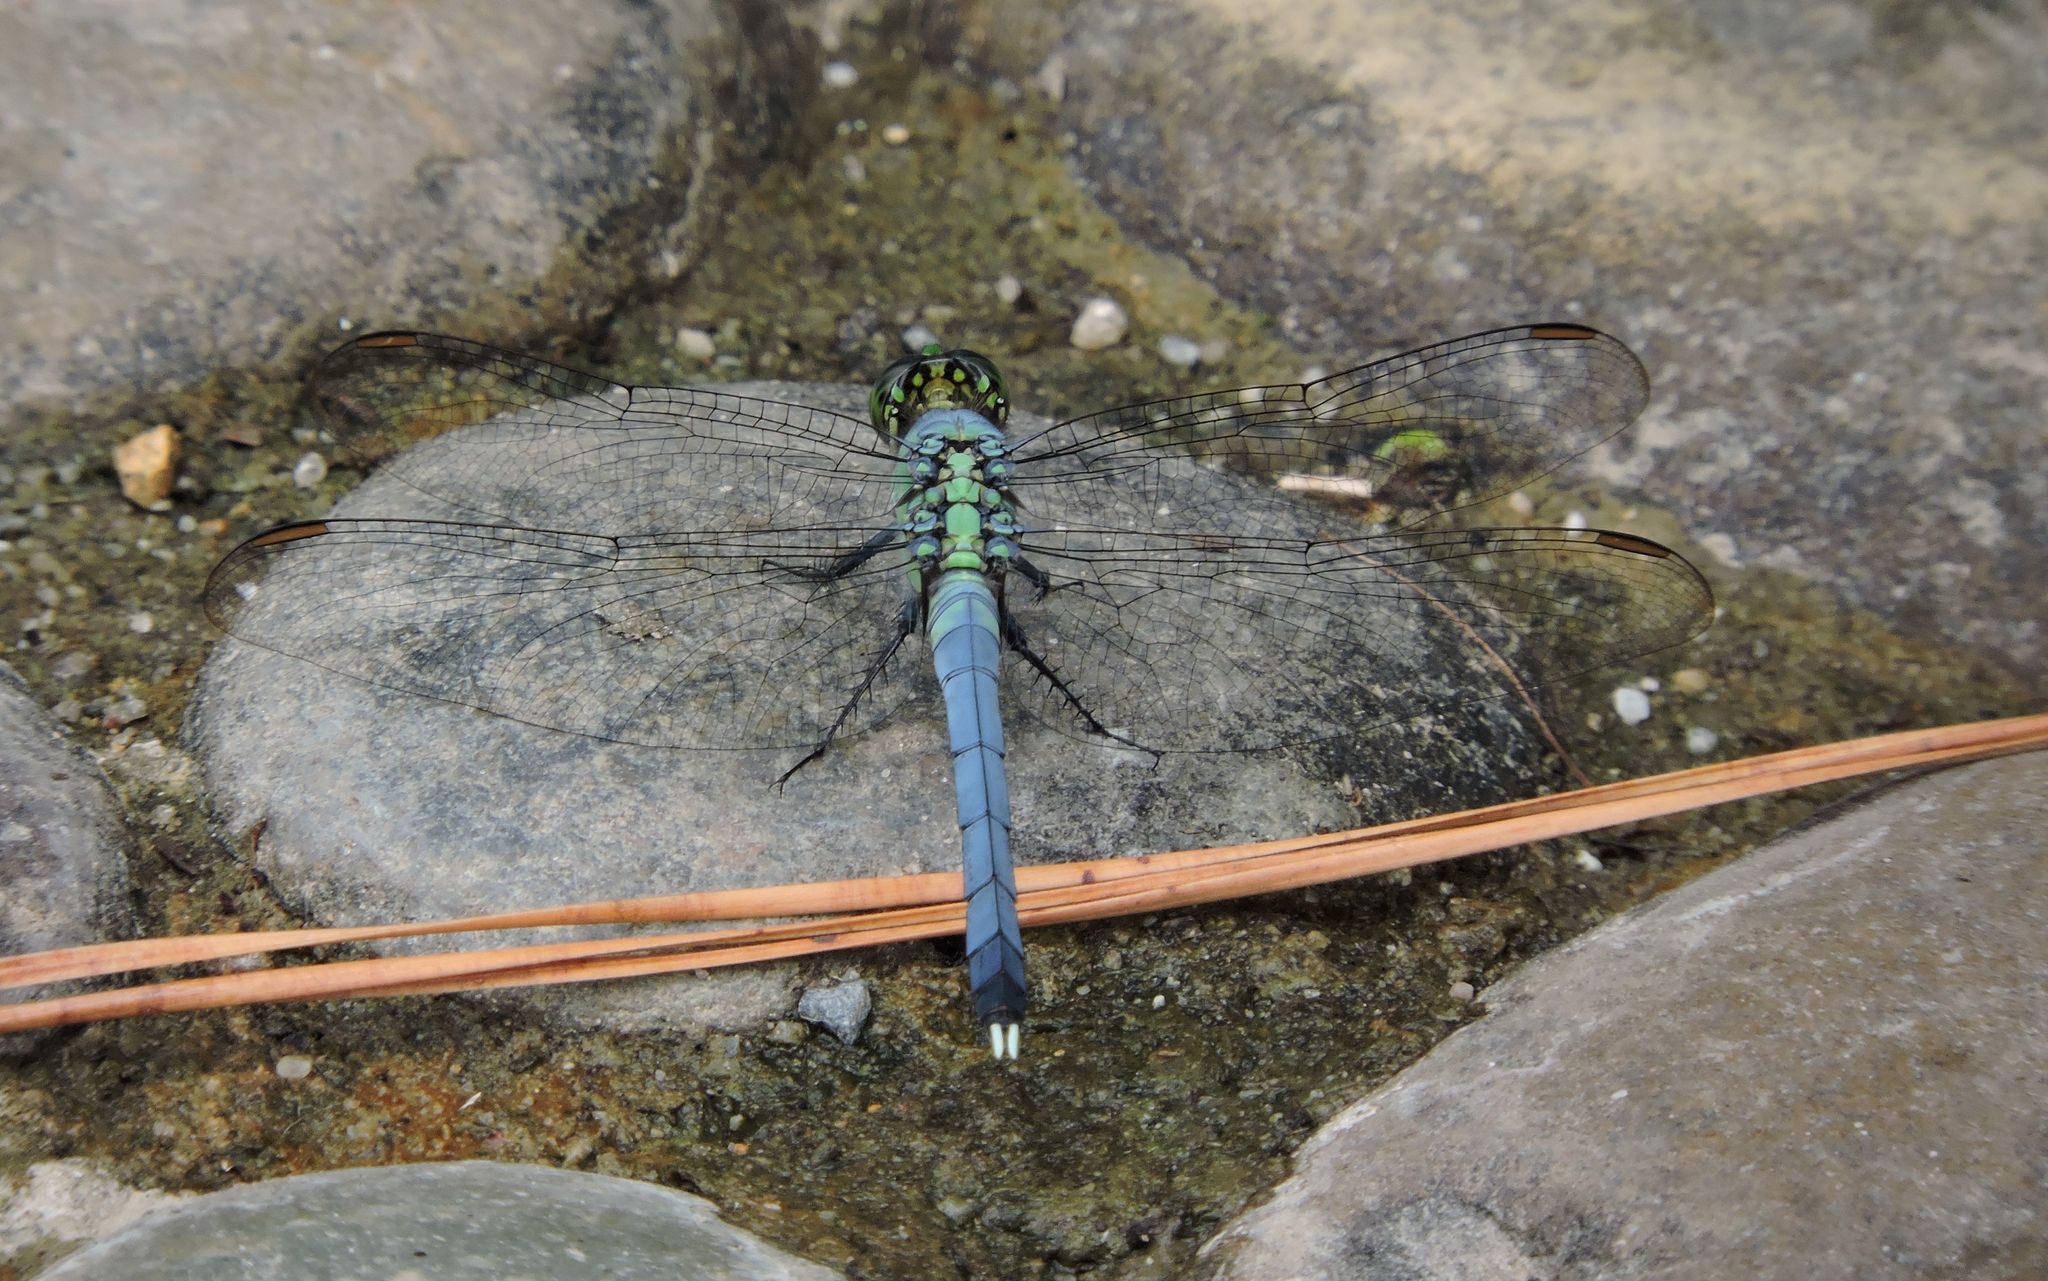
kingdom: Animalia
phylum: Arthropoda
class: Insecta
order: Odonata
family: Libellulidae
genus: Erythemis
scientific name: Erythemis simplicicollis
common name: Eastern pondhawk
